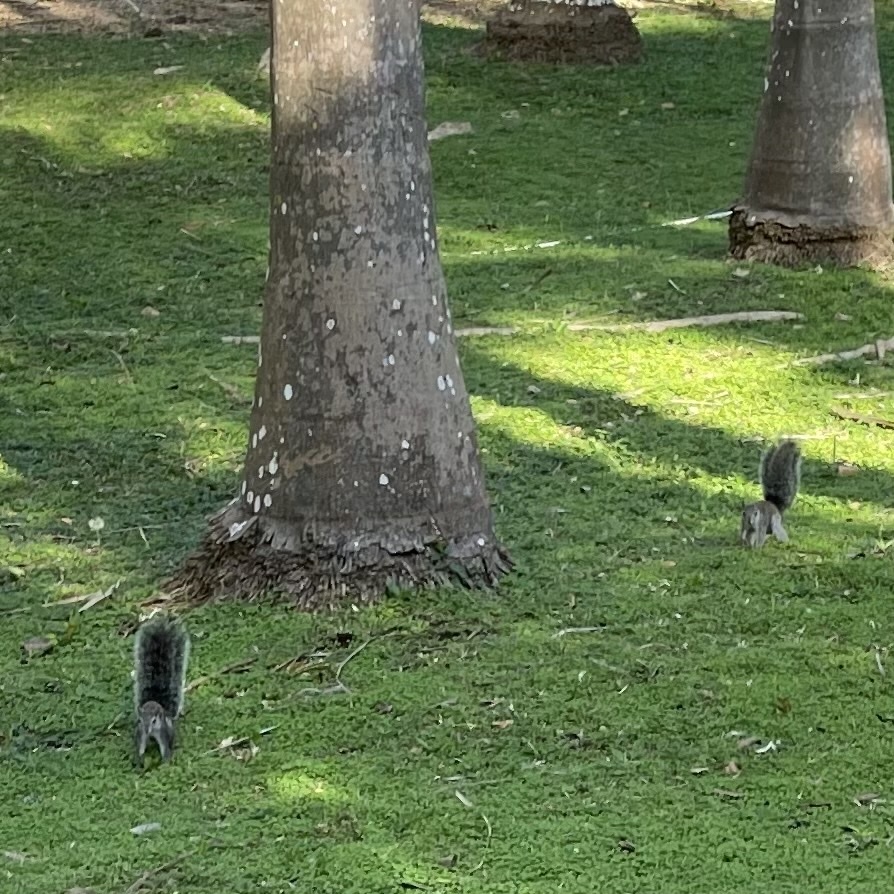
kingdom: Animalia
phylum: Chordata
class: Mammalia
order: Rodentia
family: Sciuridae
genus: Sciurus
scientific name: Sciurus yucatanensis
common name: Yucatan squirrel
